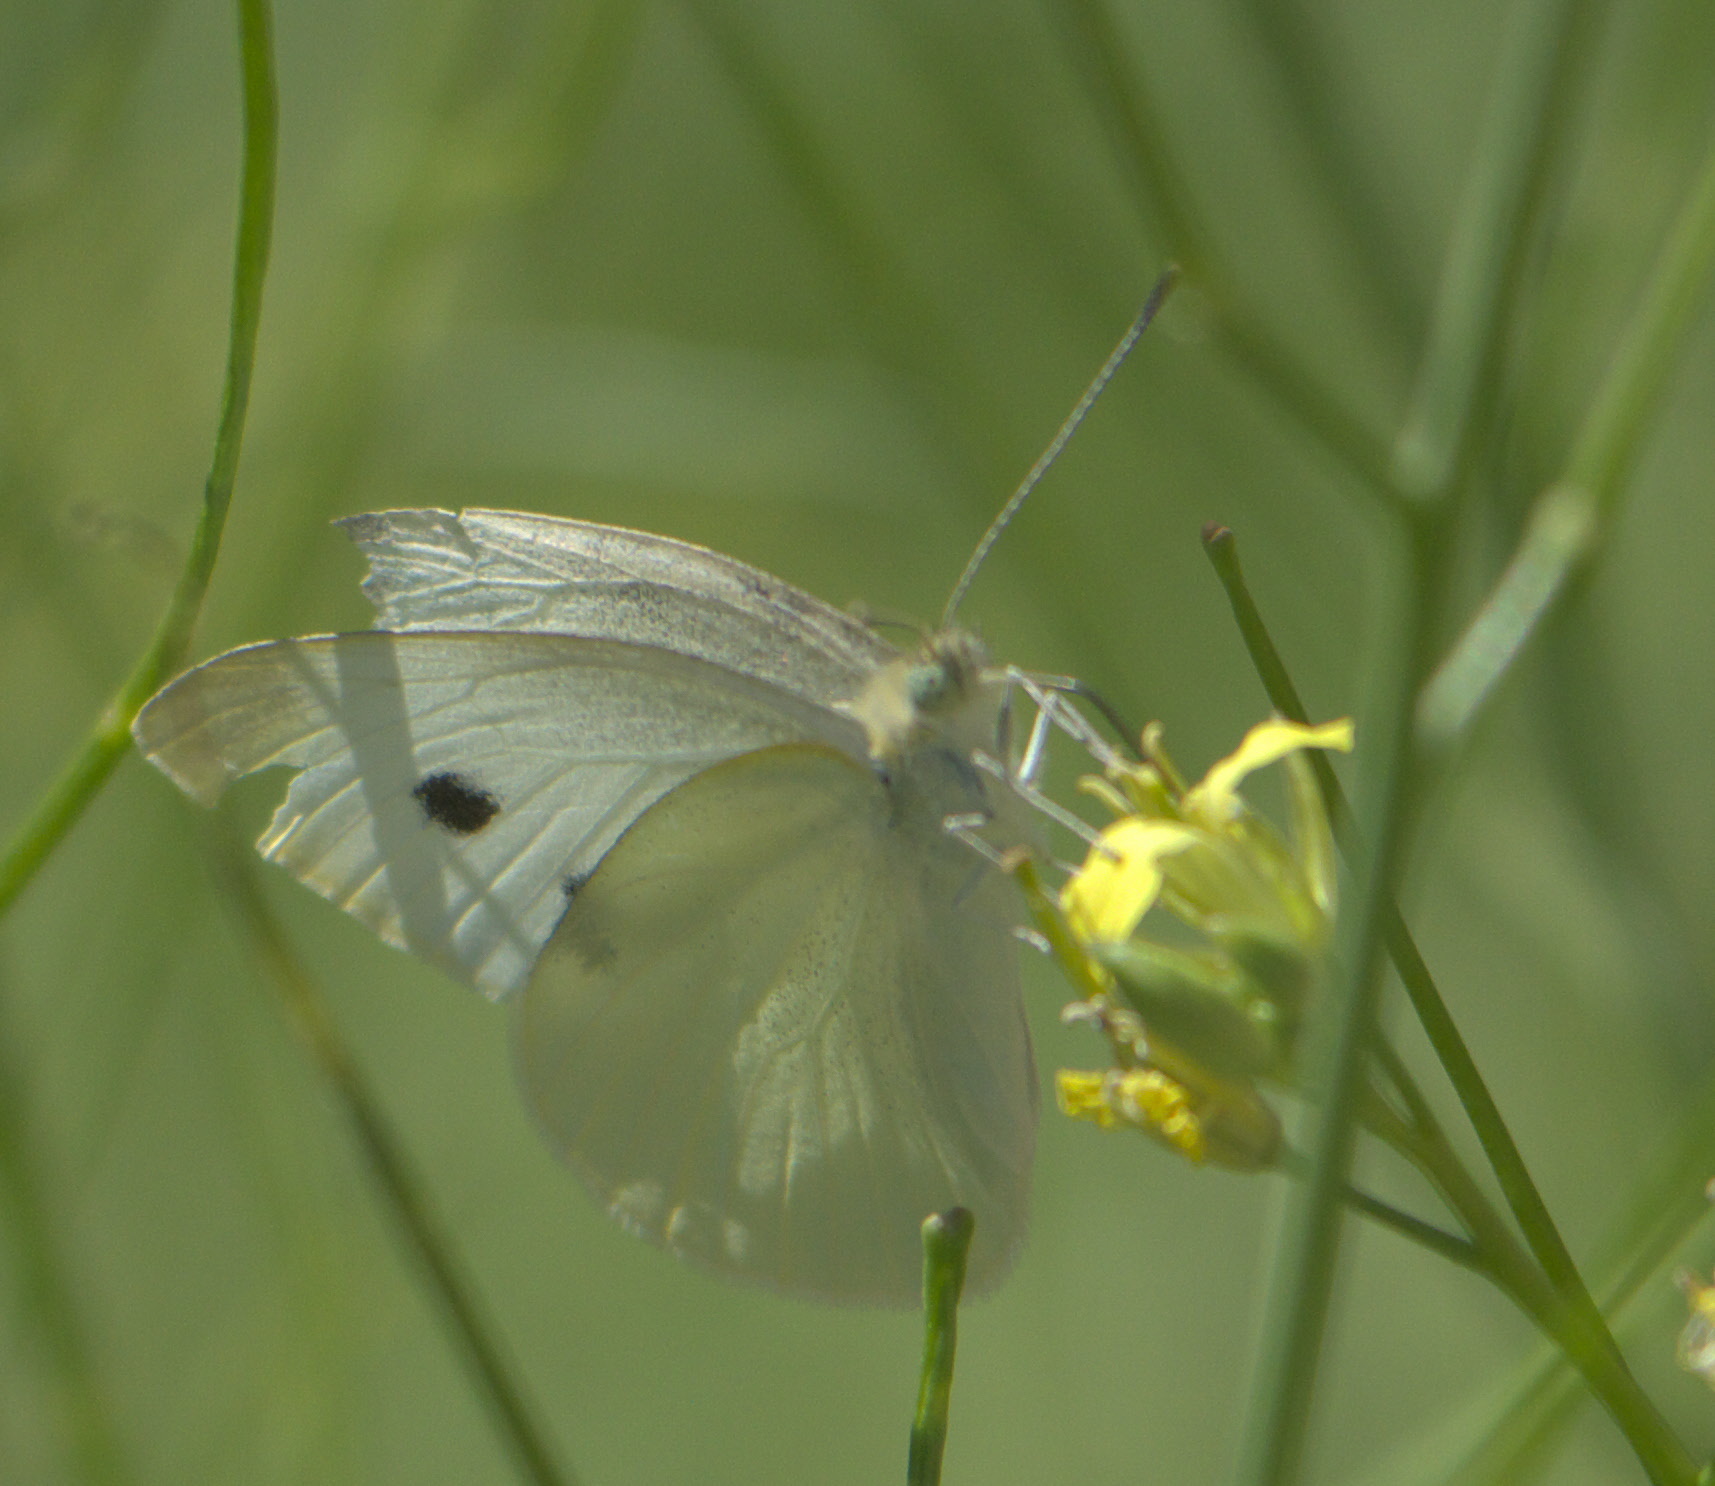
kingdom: Animalia
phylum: Arthropoda
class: Insecta
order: Lepidoptera
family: Pieridae
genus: Pieris
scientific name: Pieris rapae
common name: Small white
